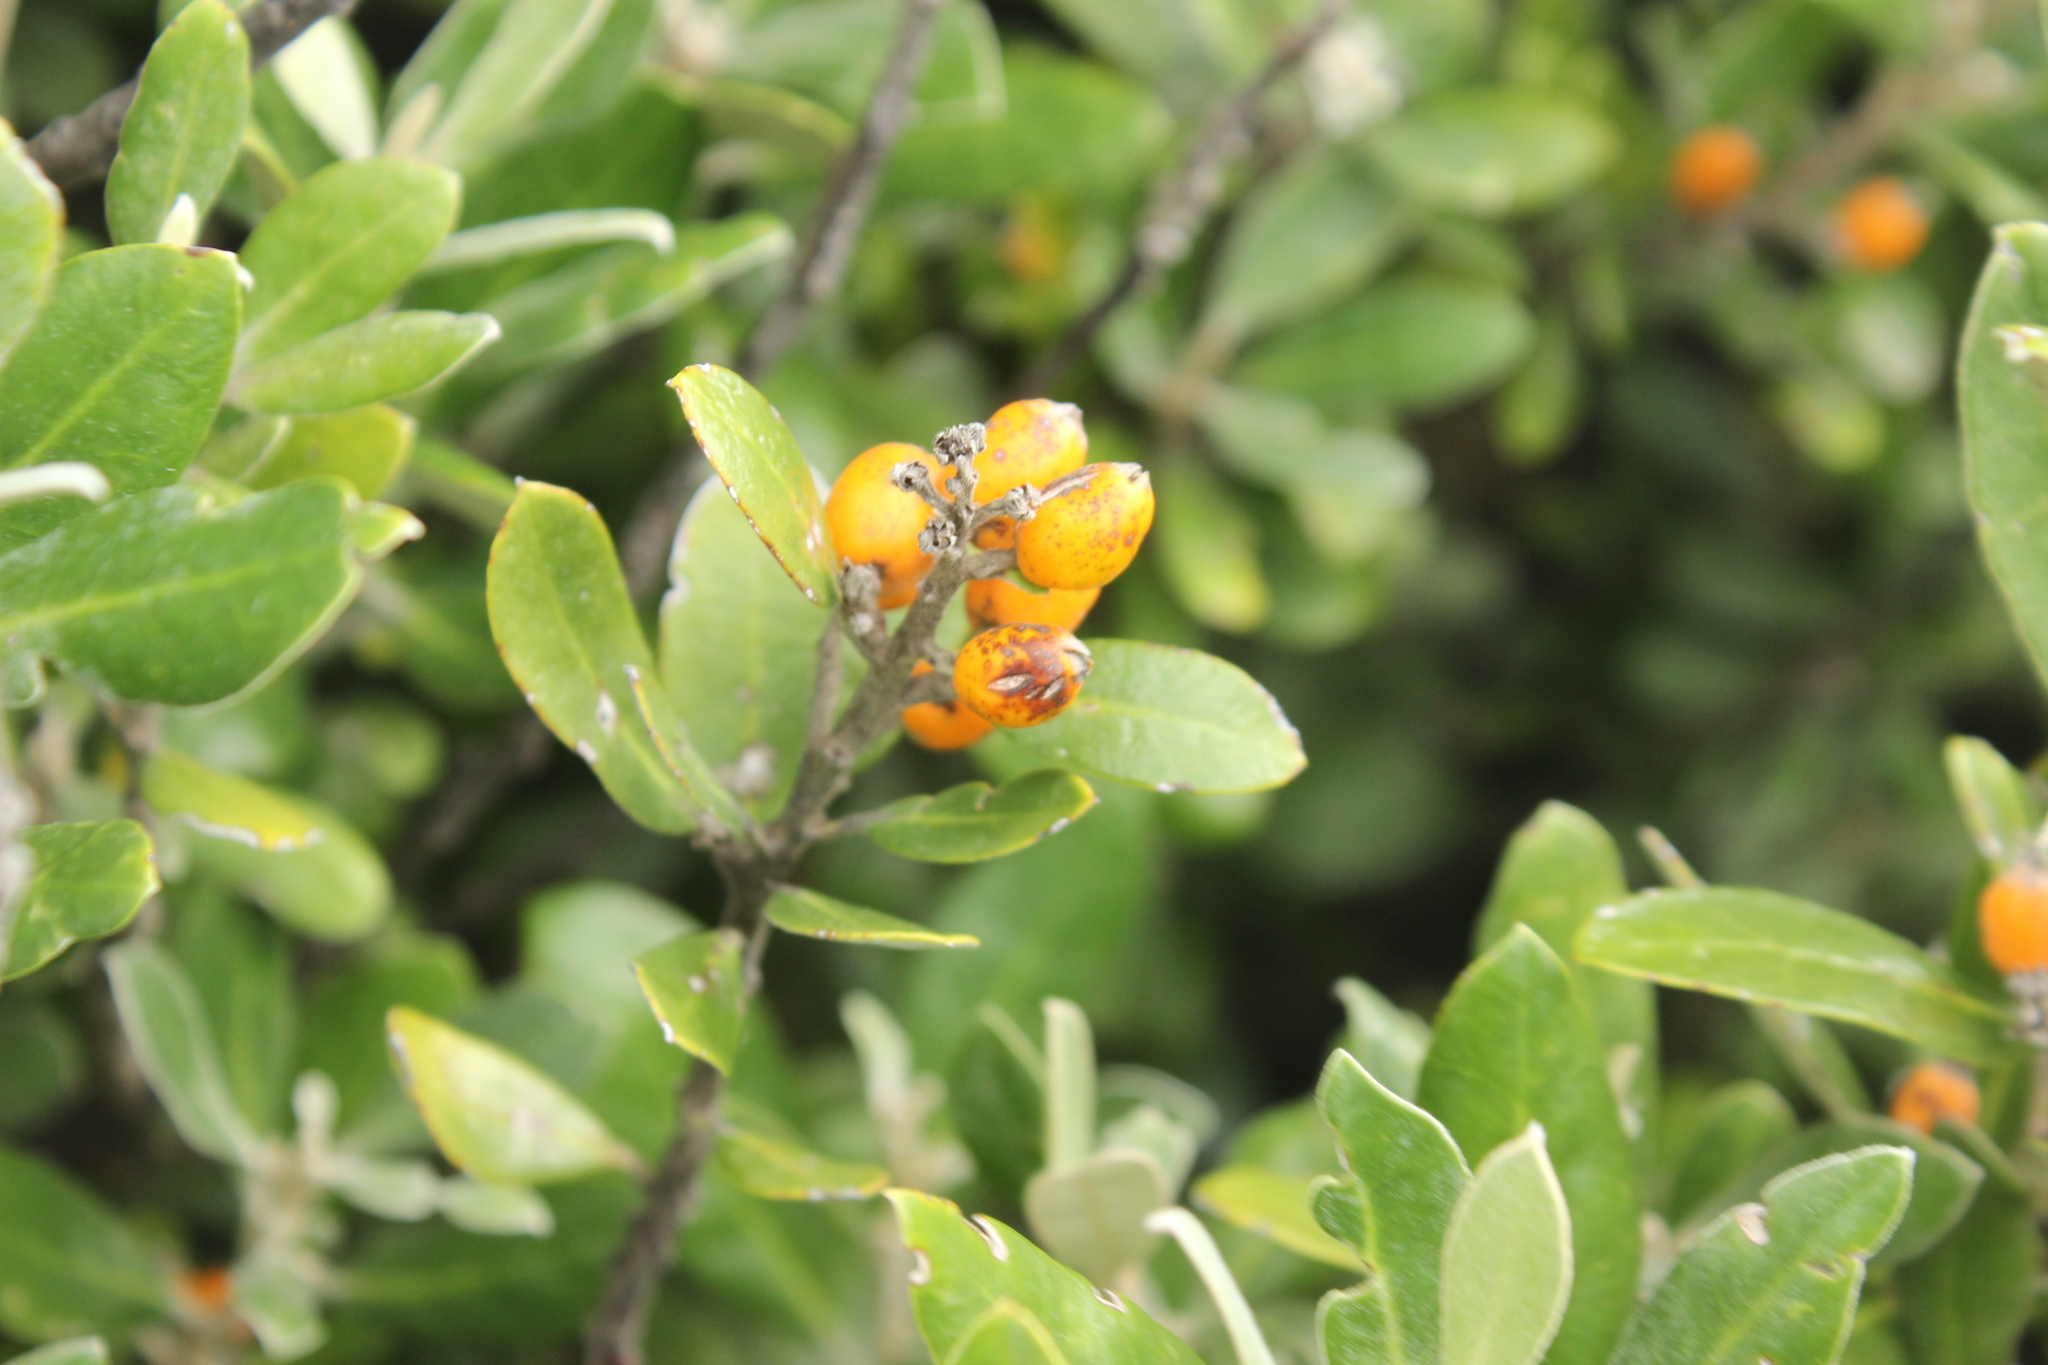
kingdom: Plantae
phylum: Tracheophyta
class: Magnoliopsida
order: Asterales
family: Argophyllaceae
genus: Corokia
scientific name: Corokia macrocarpa
